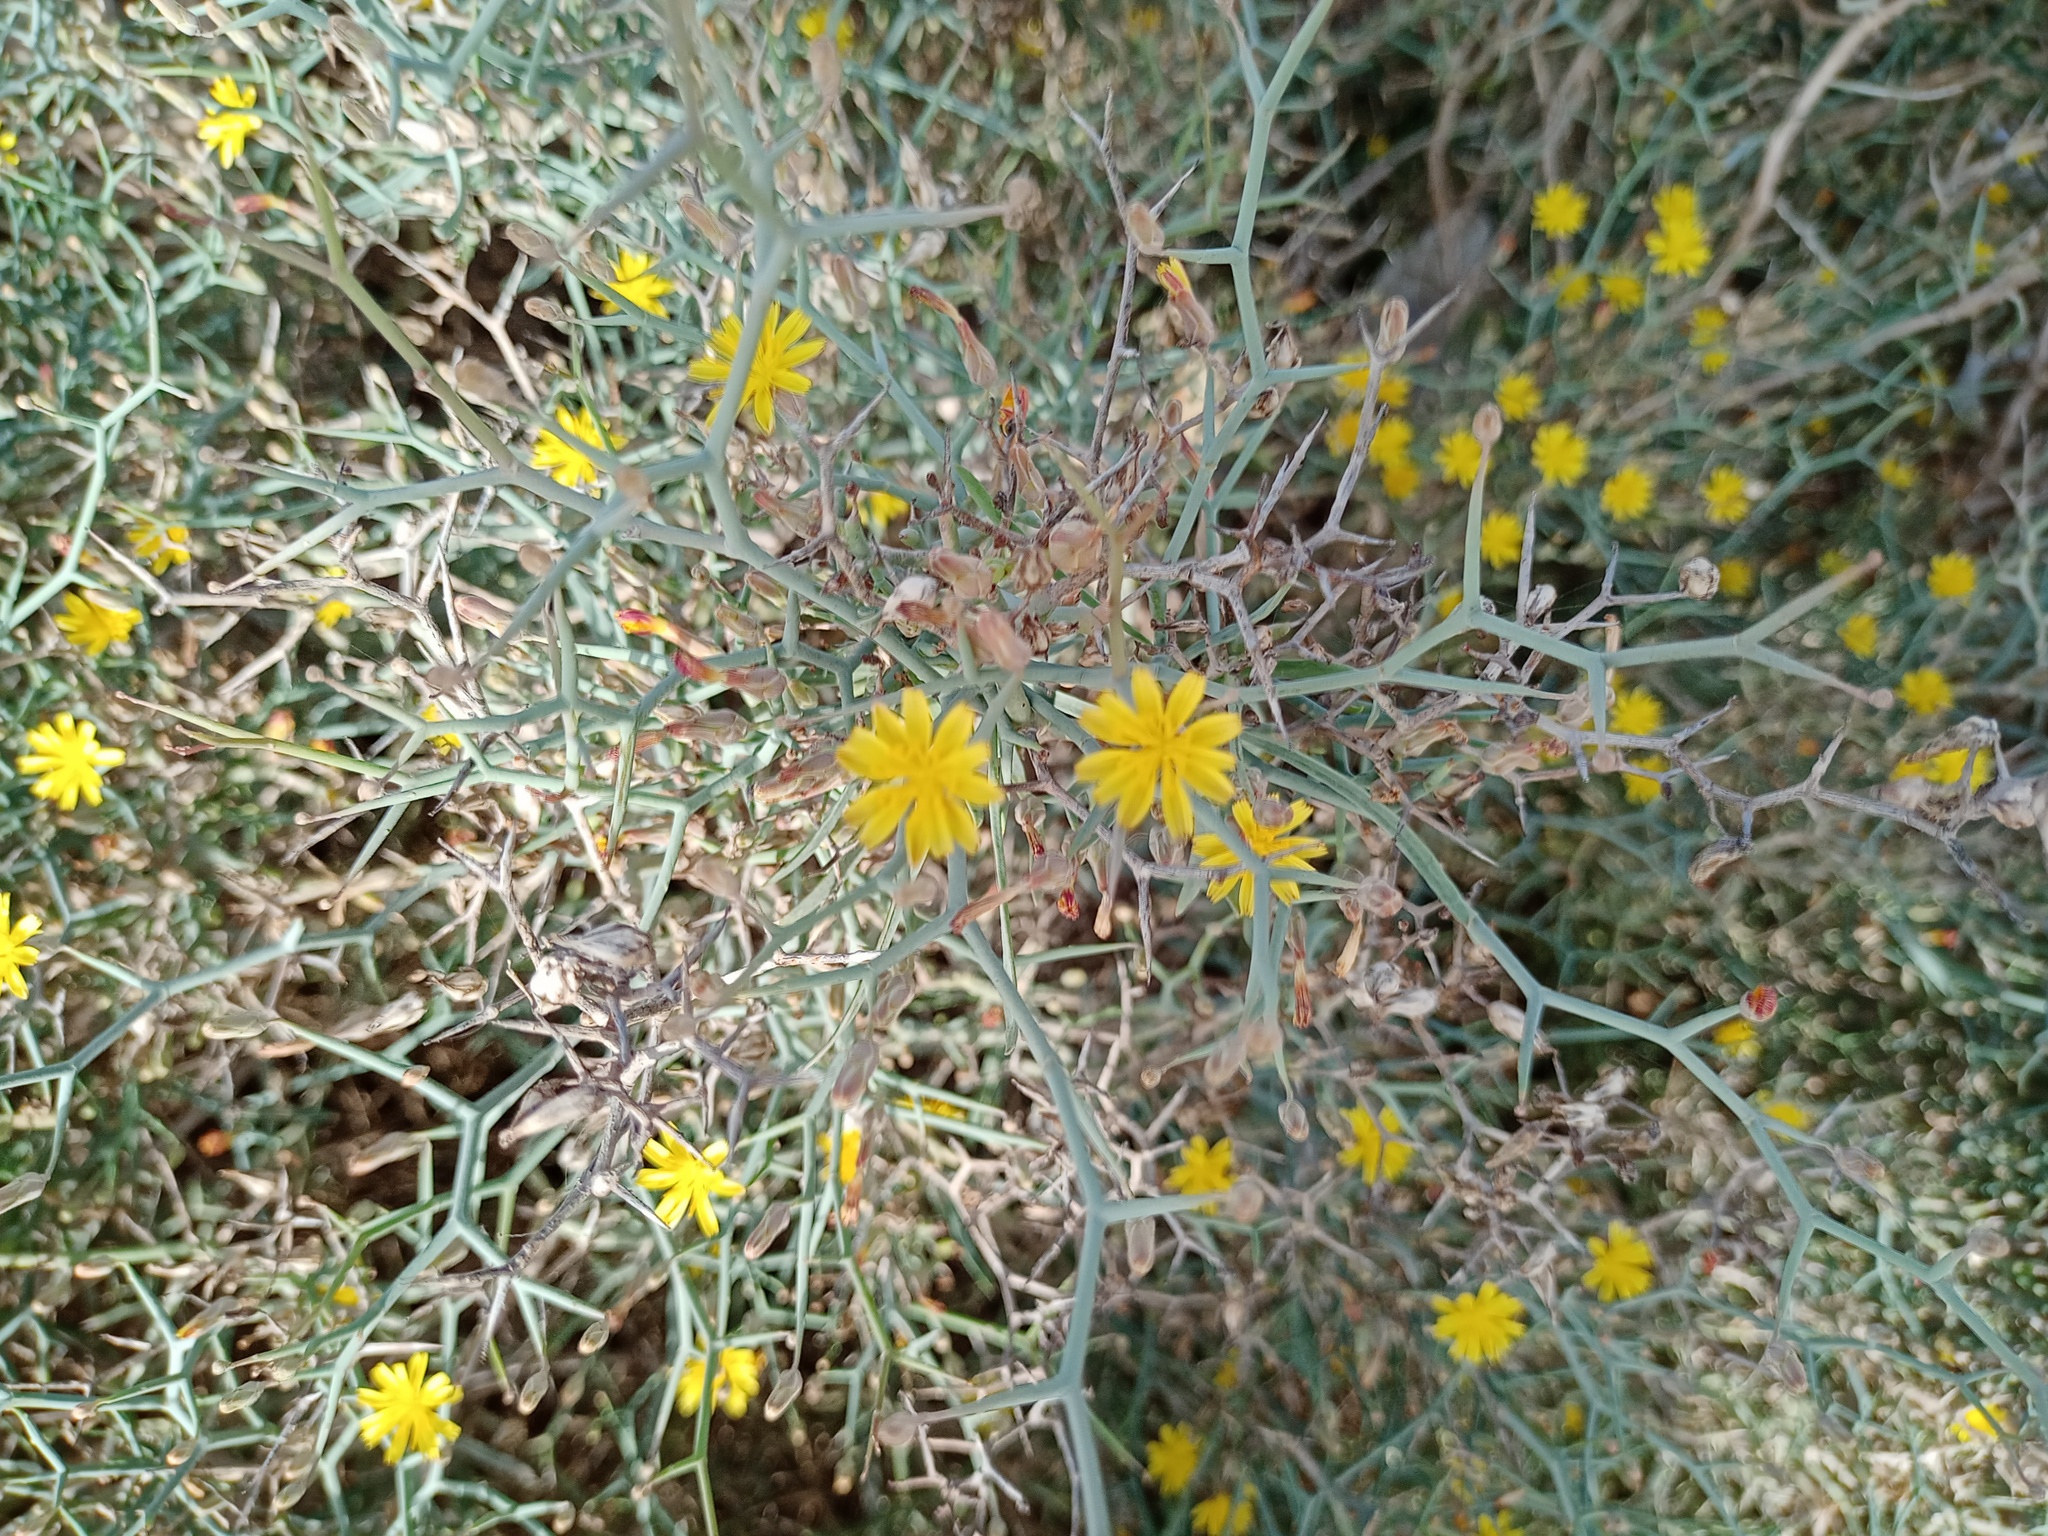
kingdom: Plantae
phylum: Tracheophyta
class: Magnoliopsida
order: Asterales
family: Asteraceae
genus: Launaea
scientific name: Launaea arborescens
